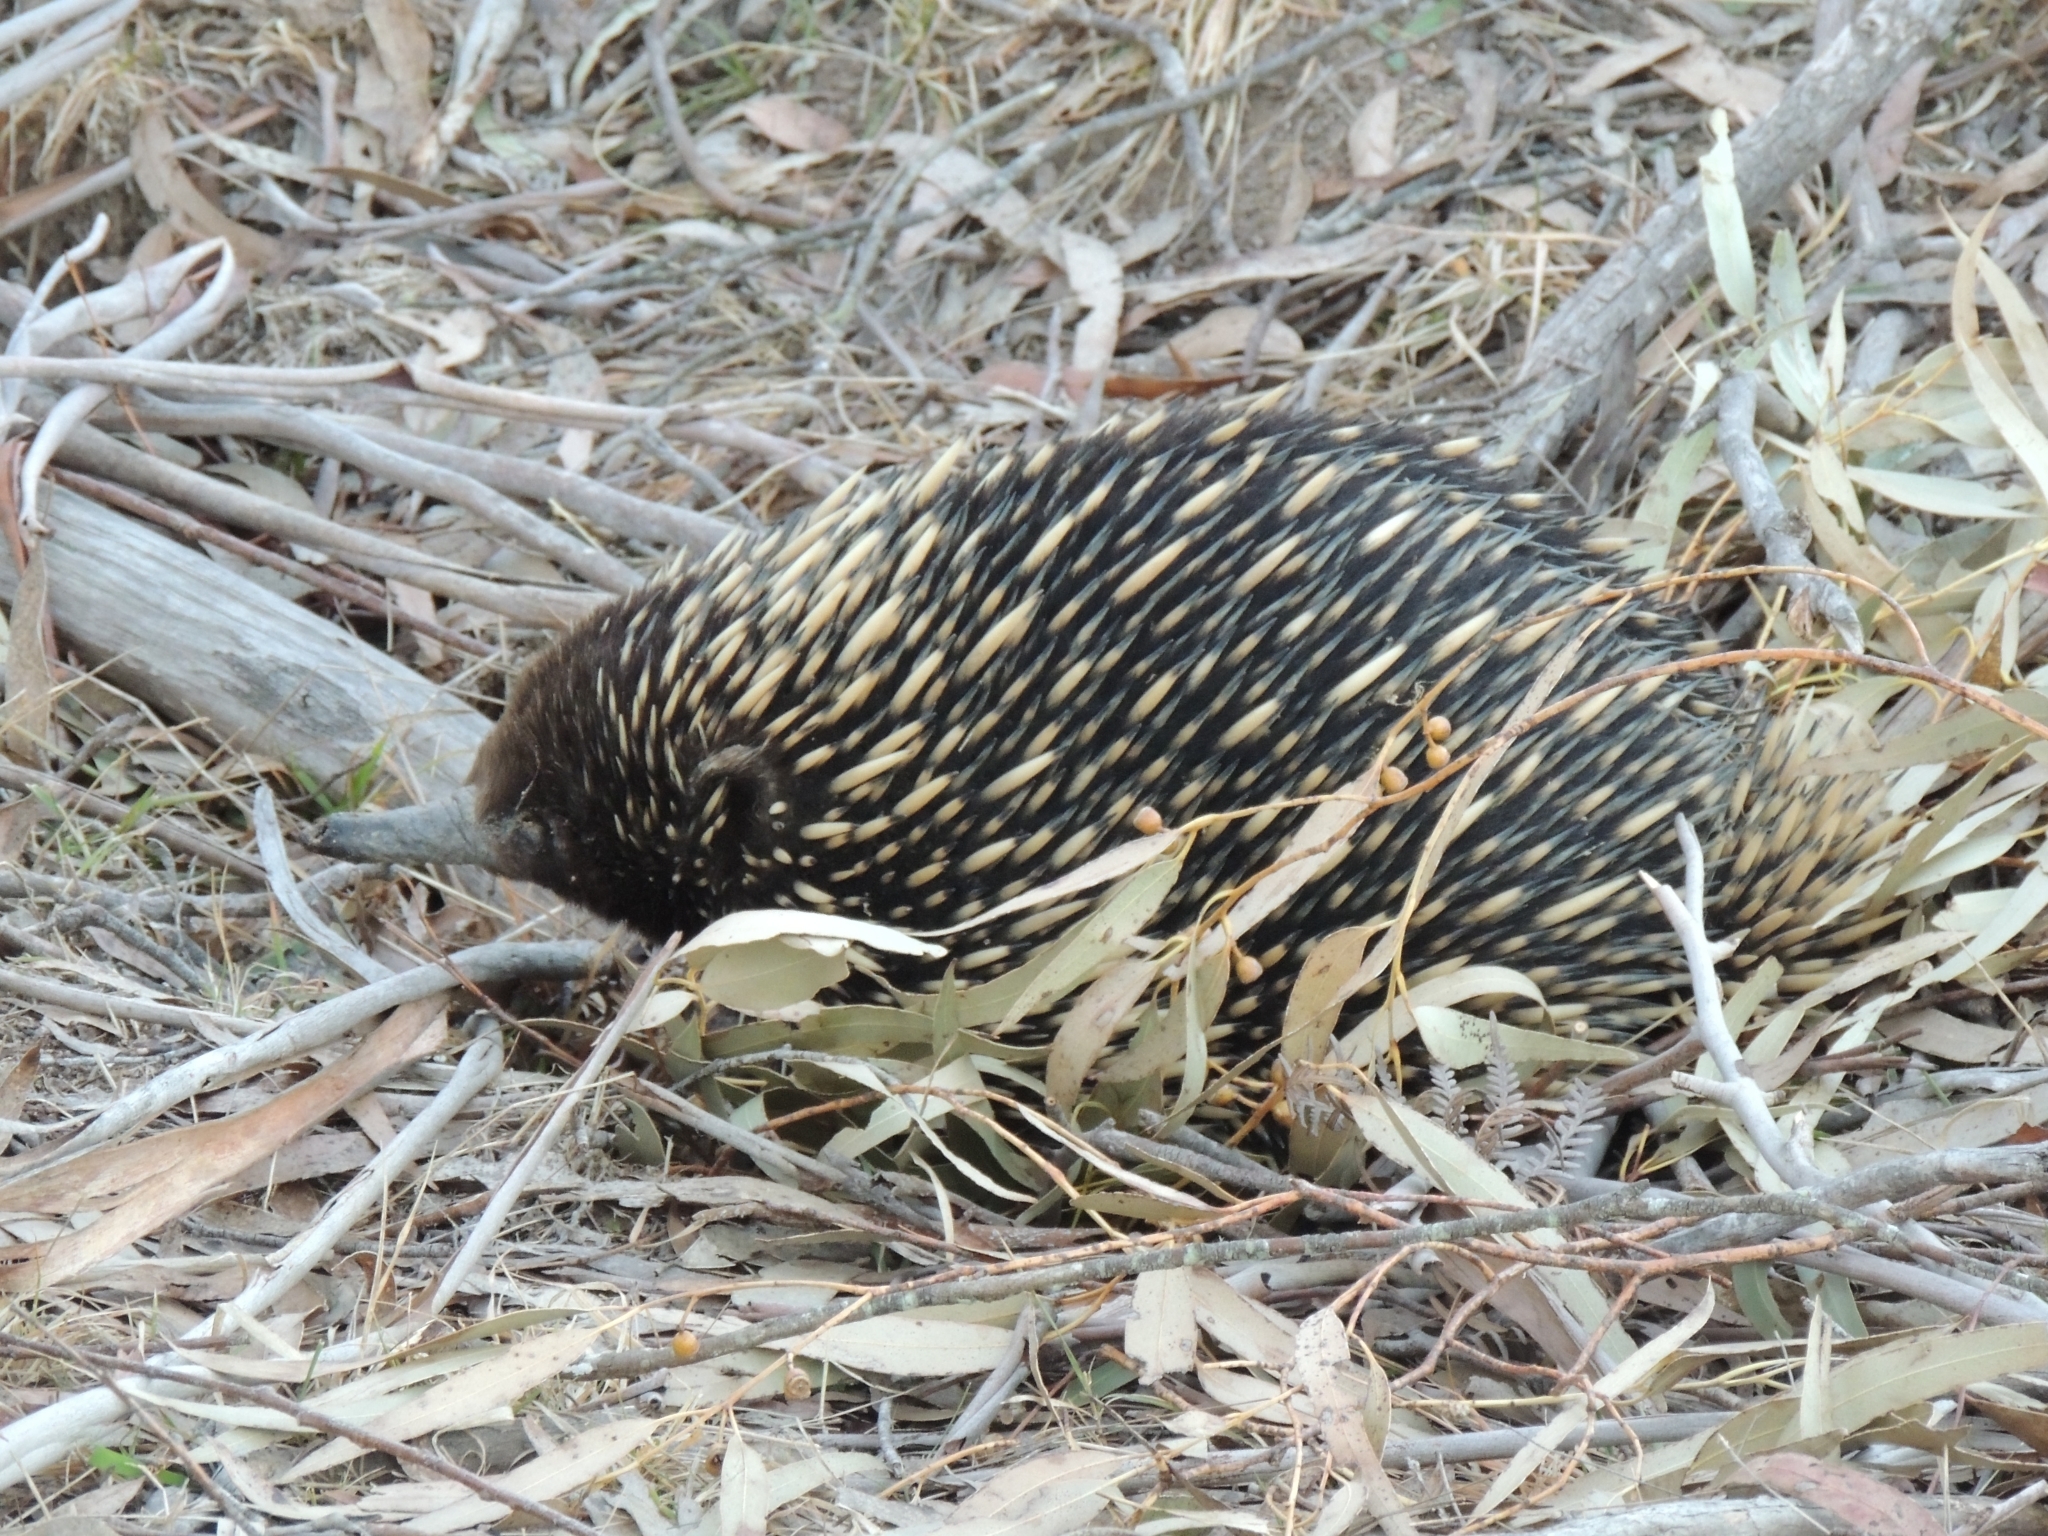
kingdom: Animalia
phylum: Chordata
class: Mammalia
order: Monotremata
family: Tachyglossidae
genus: Tachyglossus
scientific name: Tachyglossus aculeatus
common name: Short-beaked echidna
